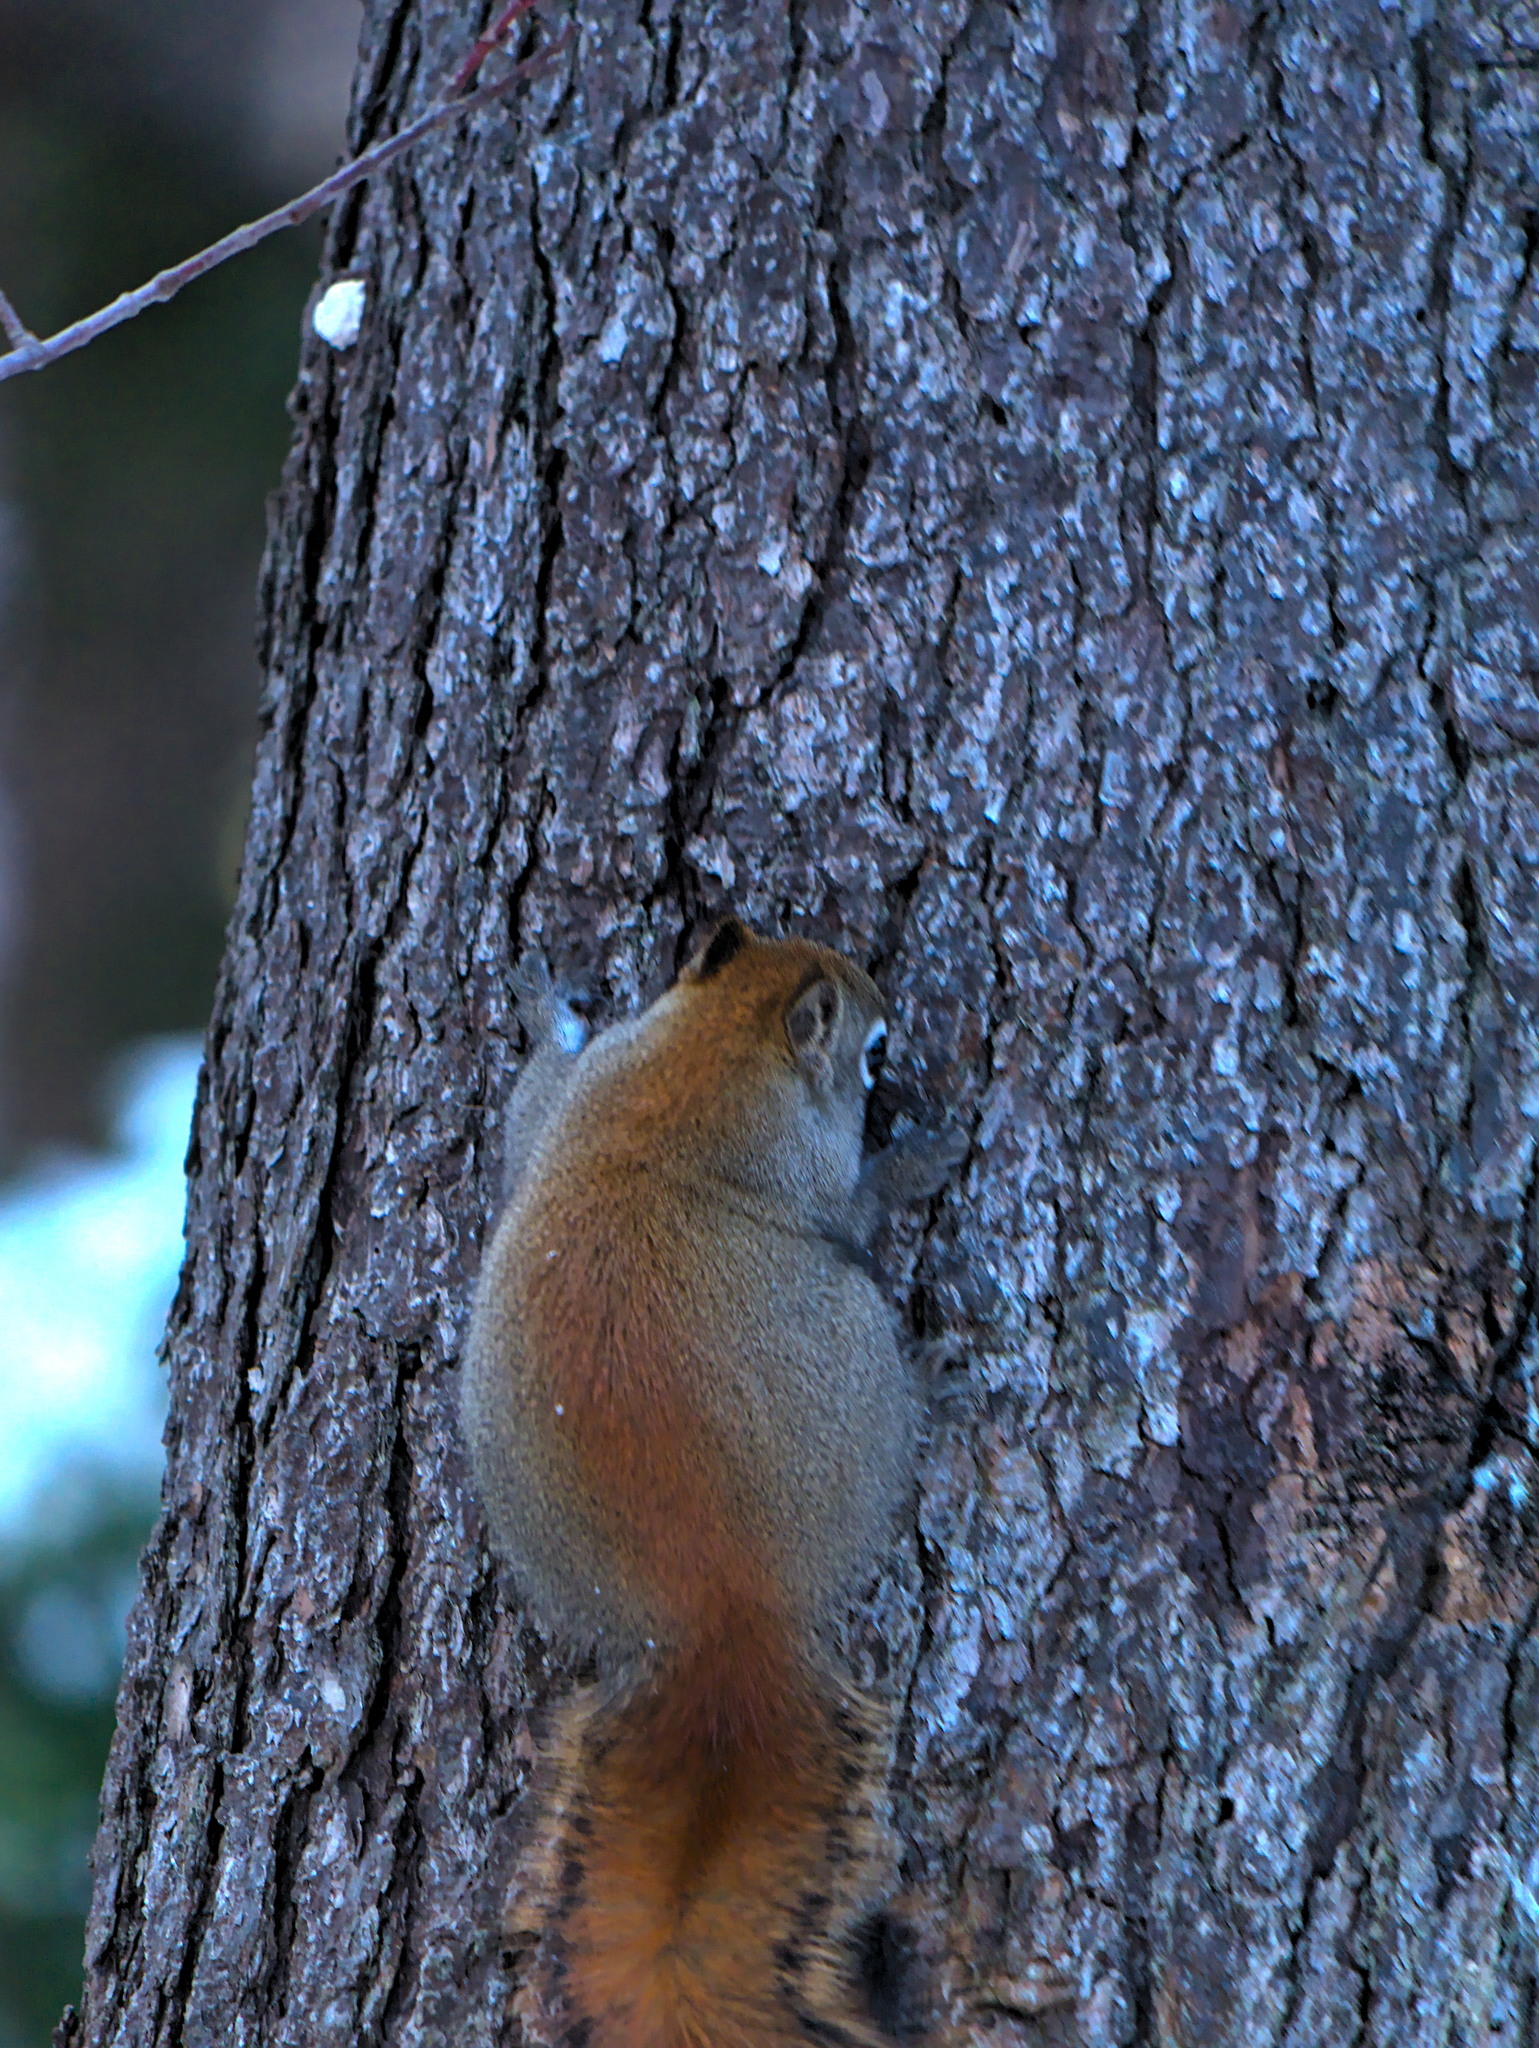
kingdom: Animalia
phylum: Chordata
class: Mammalia
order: Rodentia
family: Sciuridae
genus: Tamiasciurus
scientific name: Tamiasciurus hudsonicus
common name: Red squirrel
